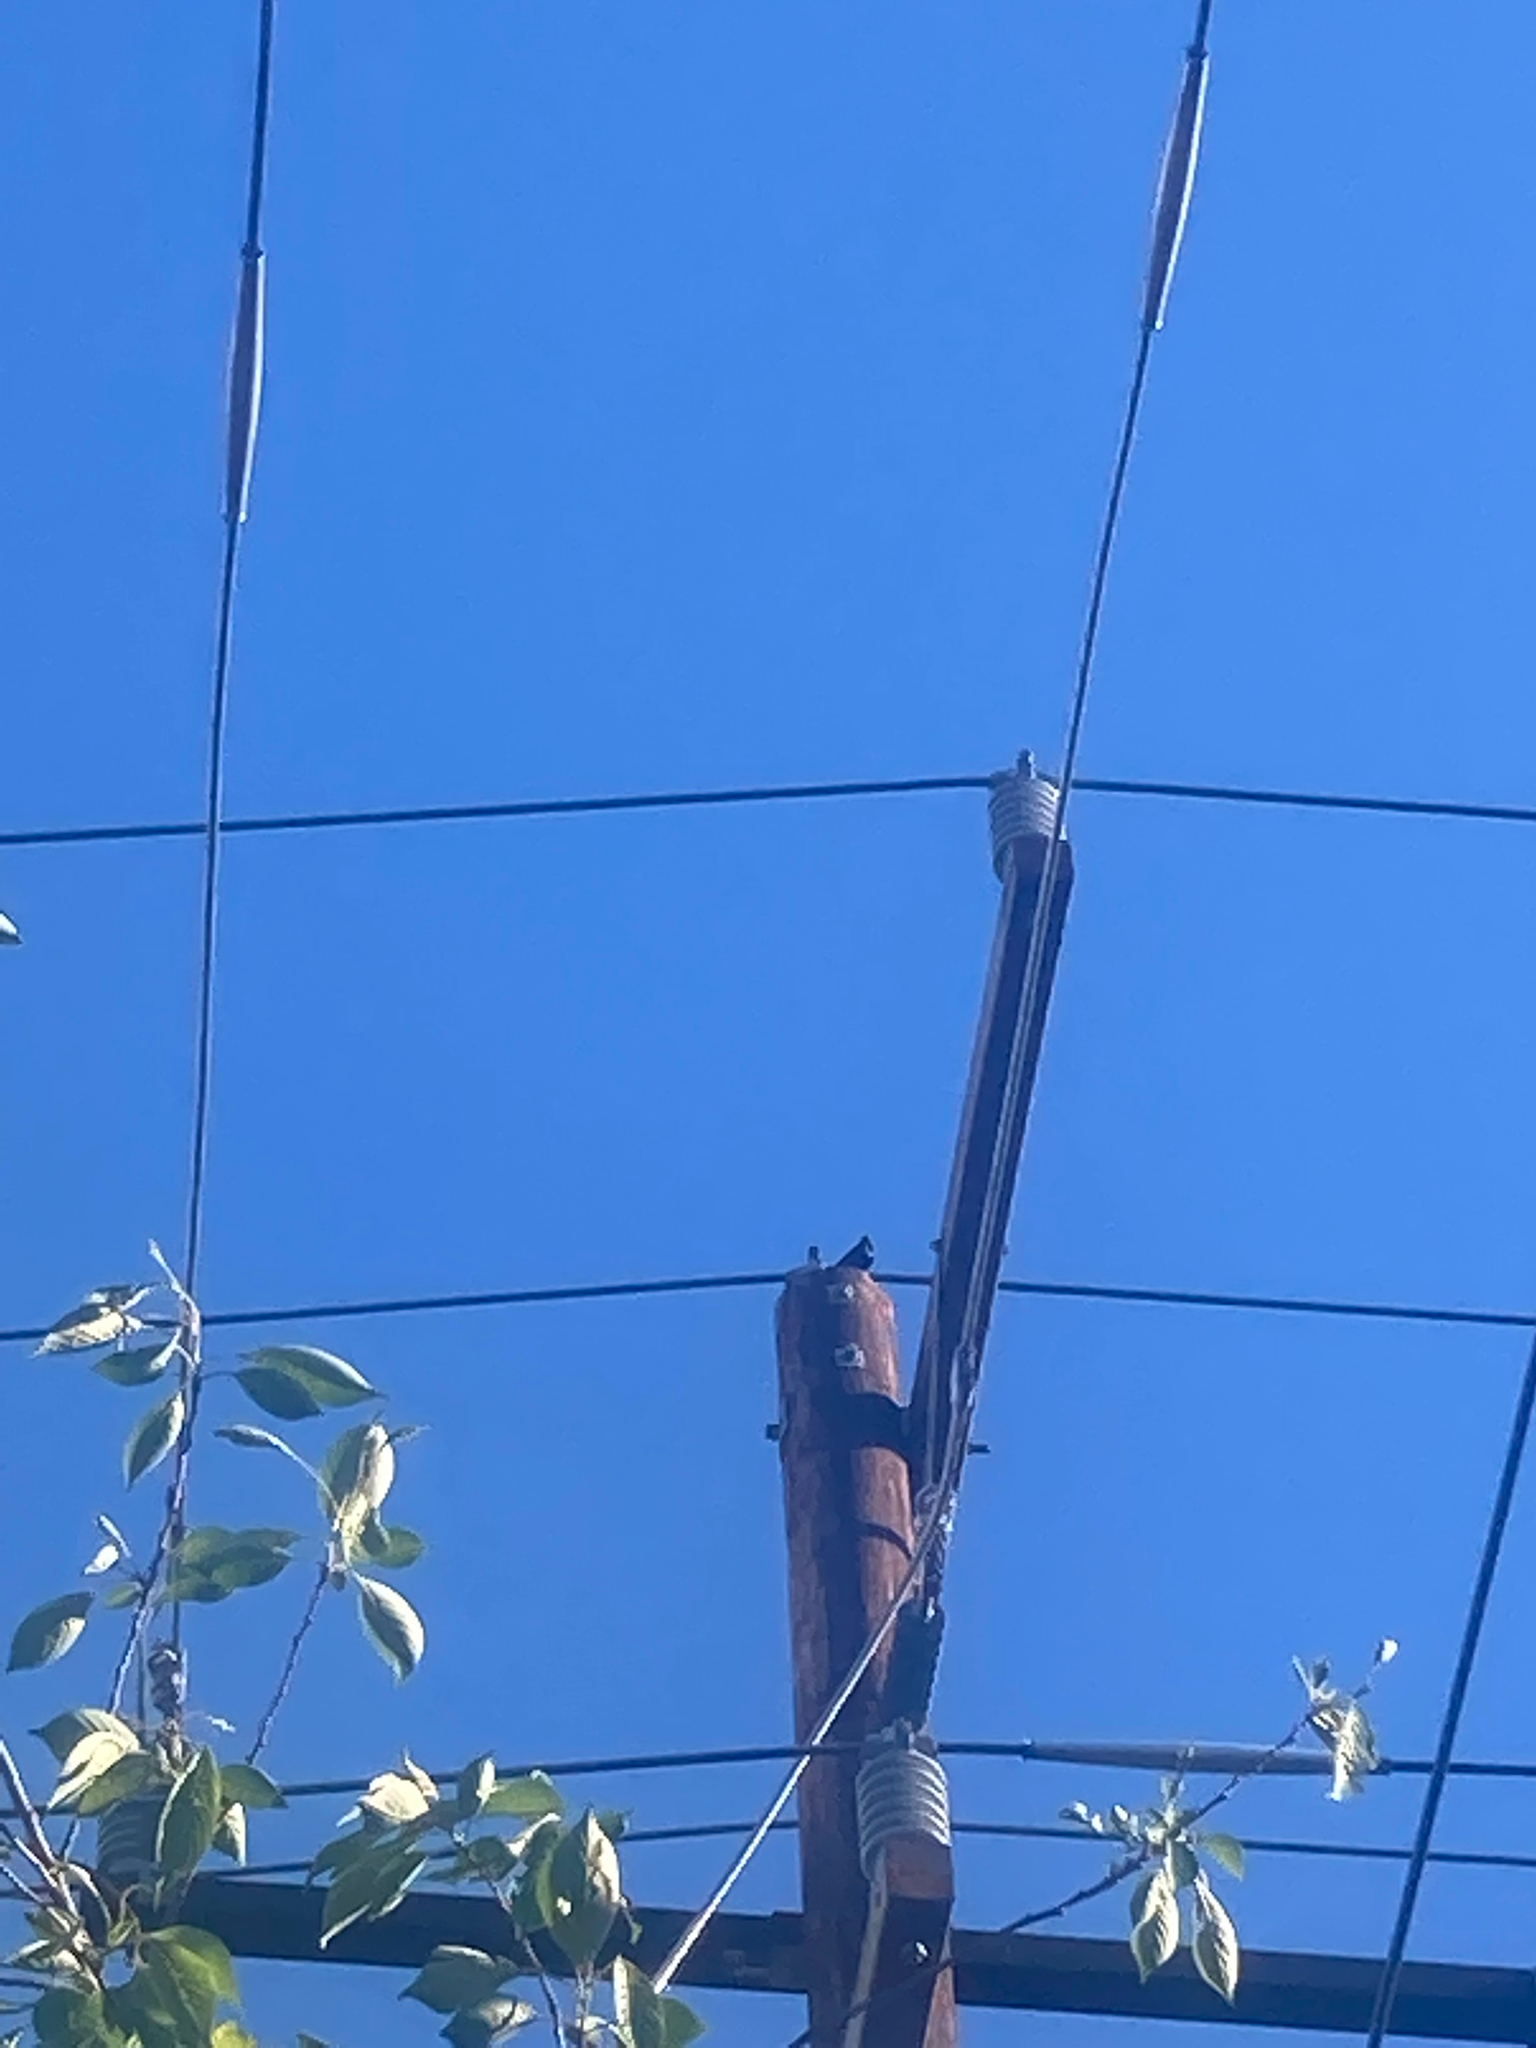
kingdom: Animalia
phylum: Chordata
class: Aves
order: Passeriformes
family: Icteridae
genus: Molothrus
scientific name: Molothrus ater
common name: Brown-headed cowbird
